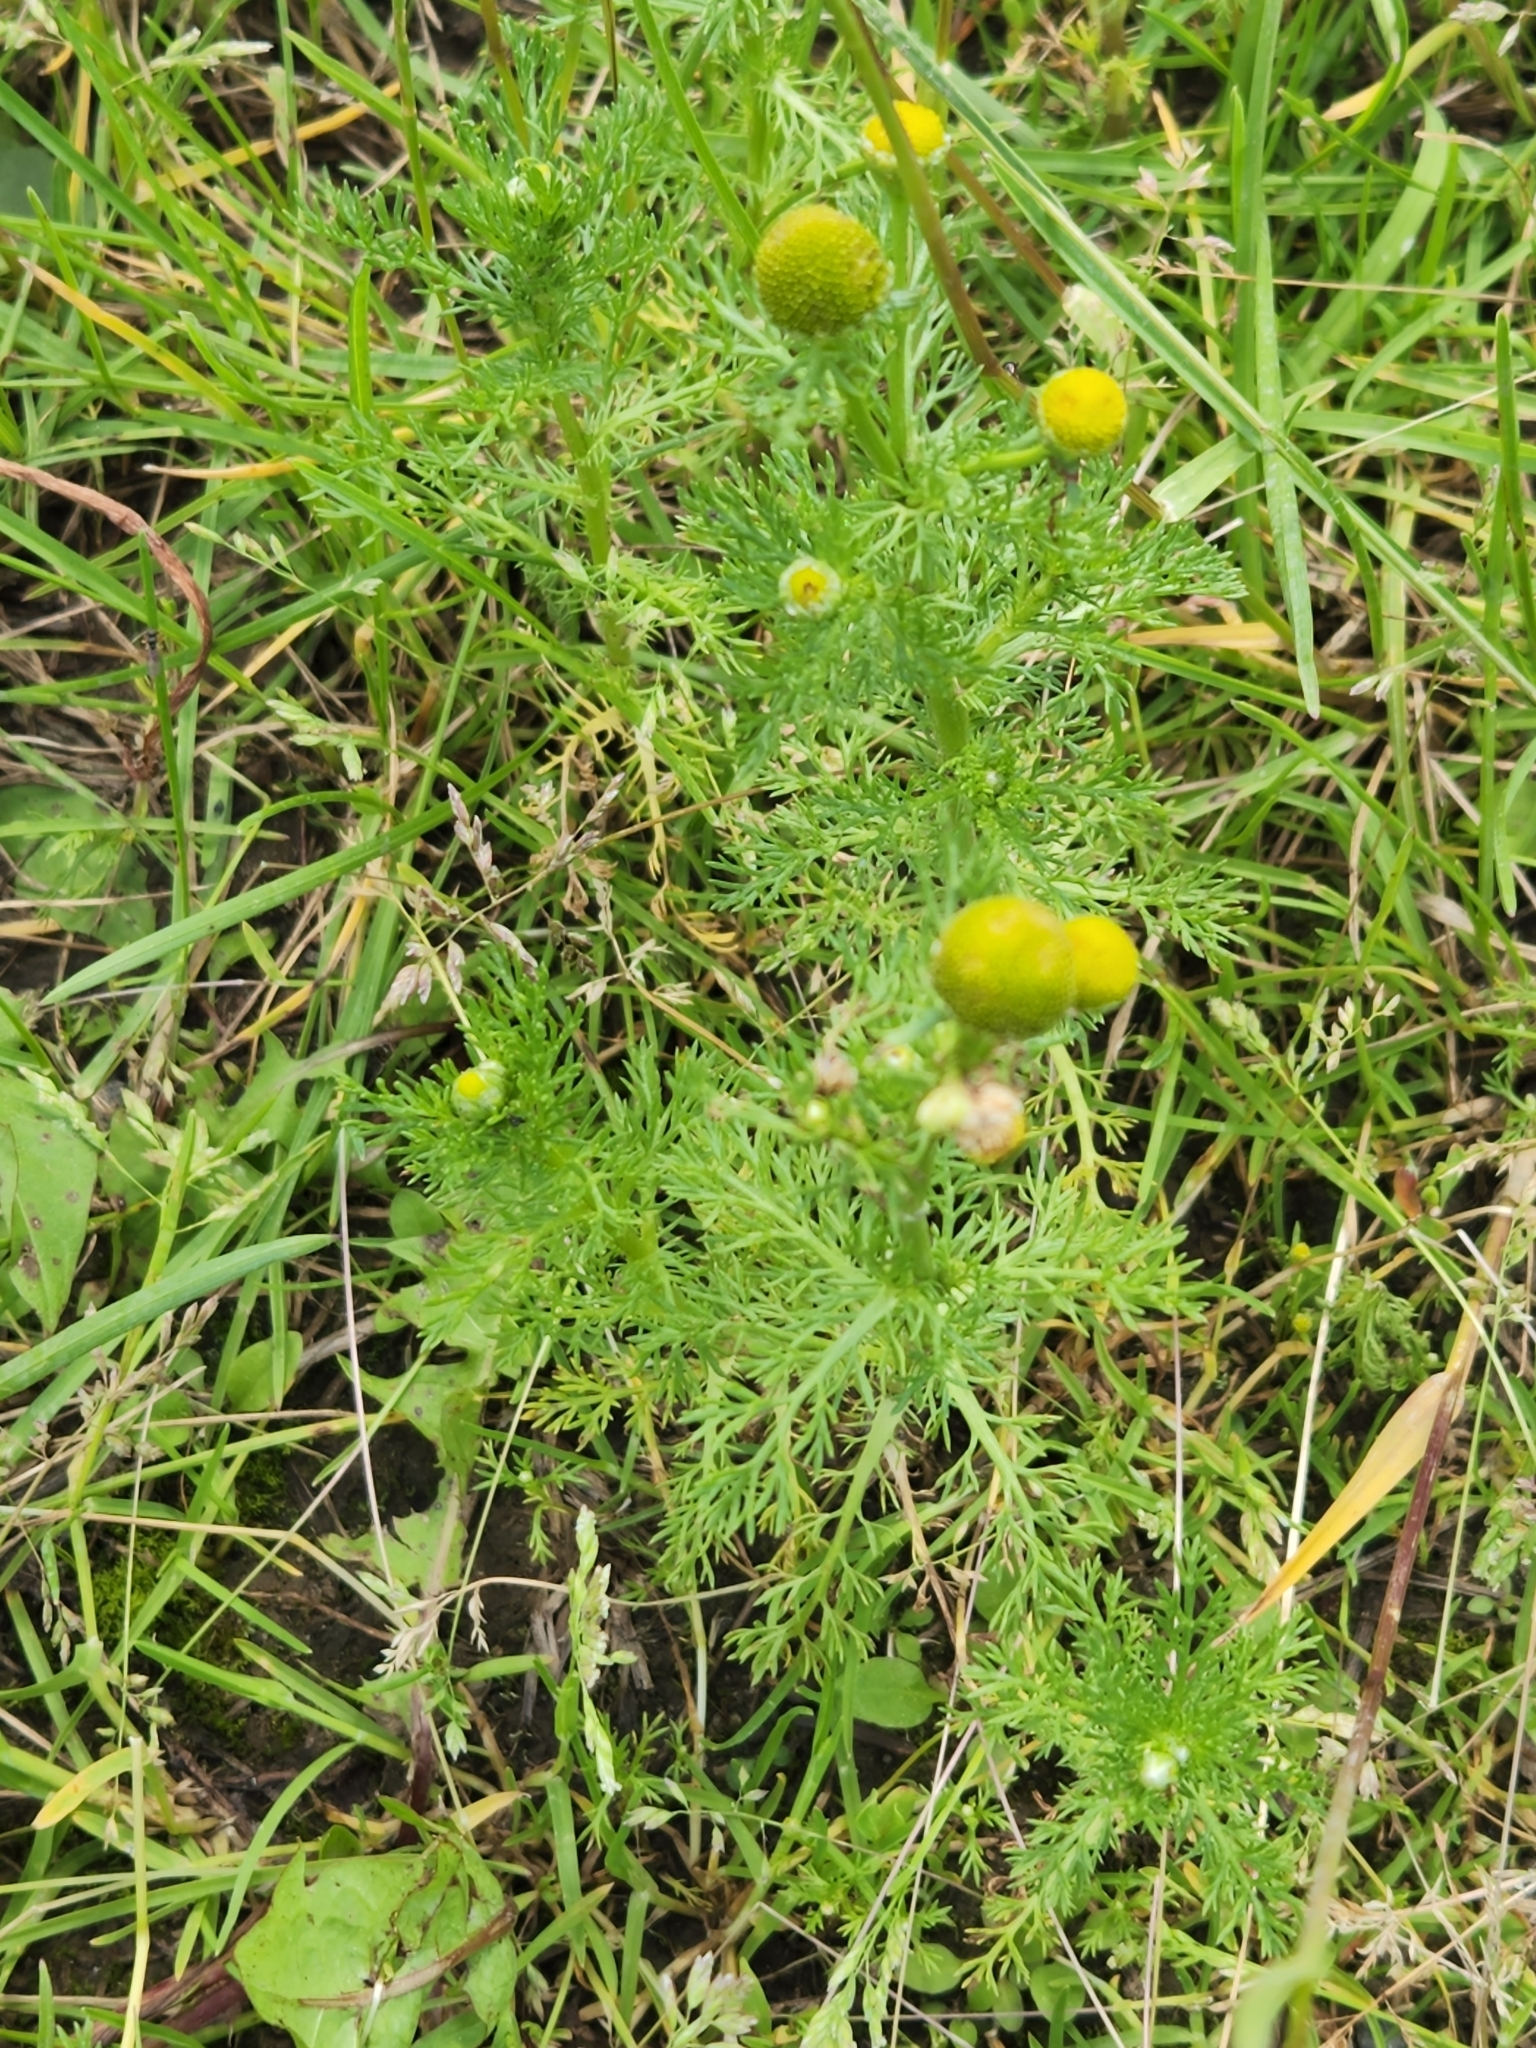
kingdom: Plantae
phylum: Tracheophyta
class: Magnoliopsida
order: Asterales
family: Asteraceae
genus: Matricaria
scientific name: Matricaria discoidea
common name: Disc mayweed
